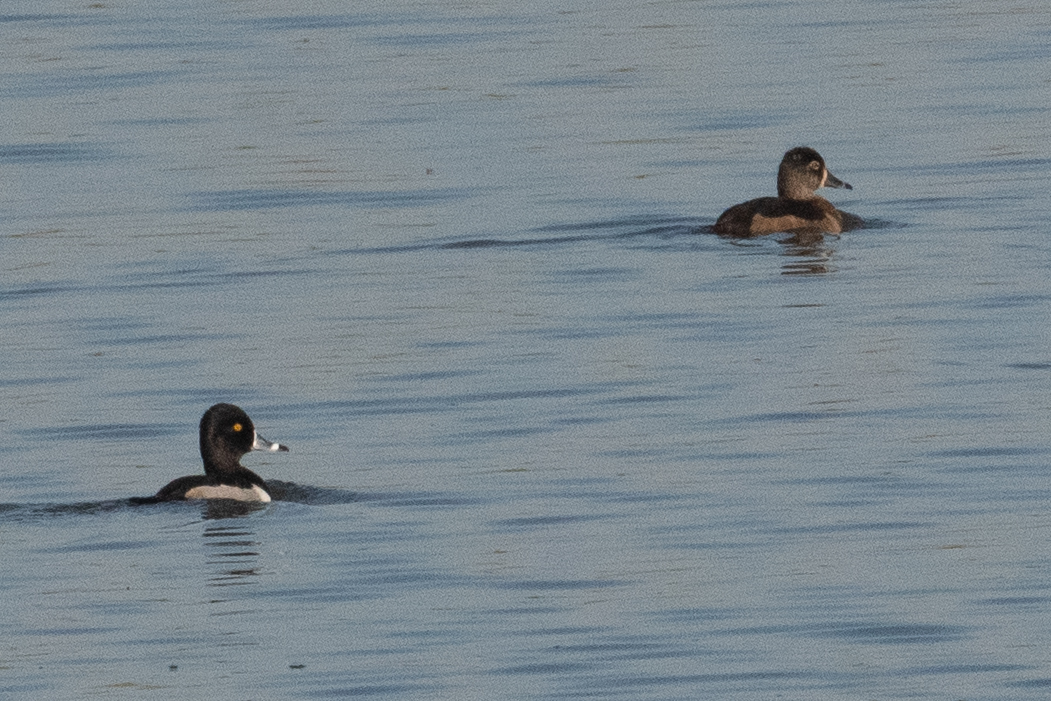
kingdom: Animalia
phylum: Chordata
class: Aves
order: Anseriformes
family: Anatidae
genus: Aythya
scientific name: Aythya collaris
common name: Ring-necked duck
